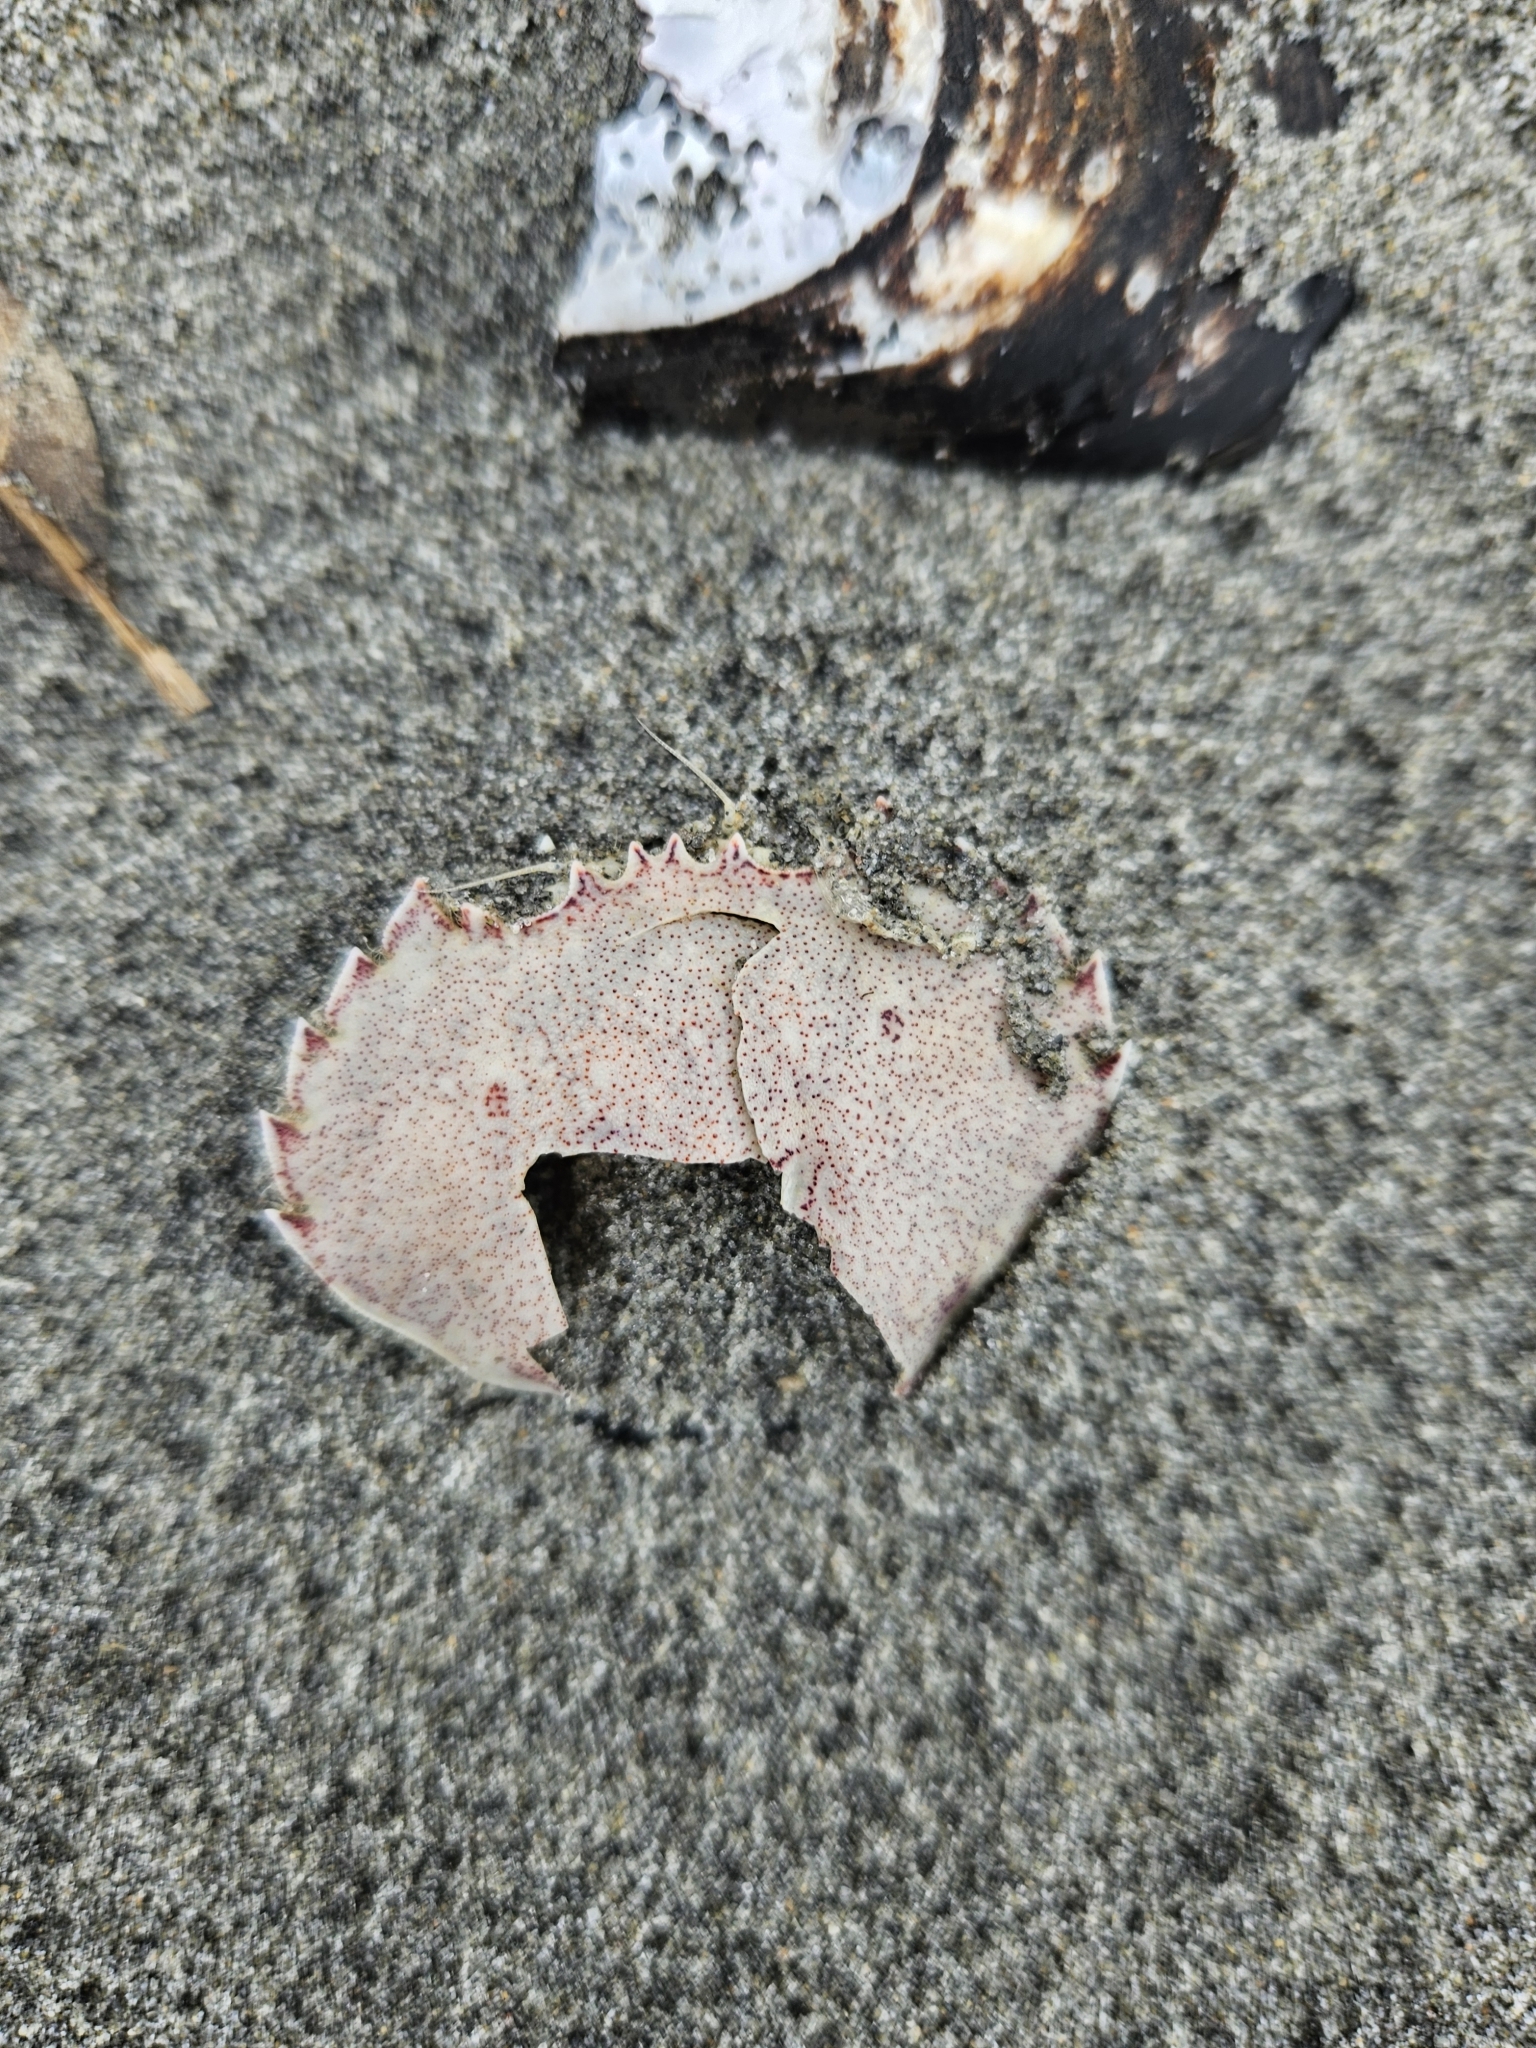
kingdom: Animalia
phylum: Arthropoda
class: Malacostraca
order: Decapoda
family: Ovalipidae
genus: Ovalipes
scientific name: Ovalipes catharus
